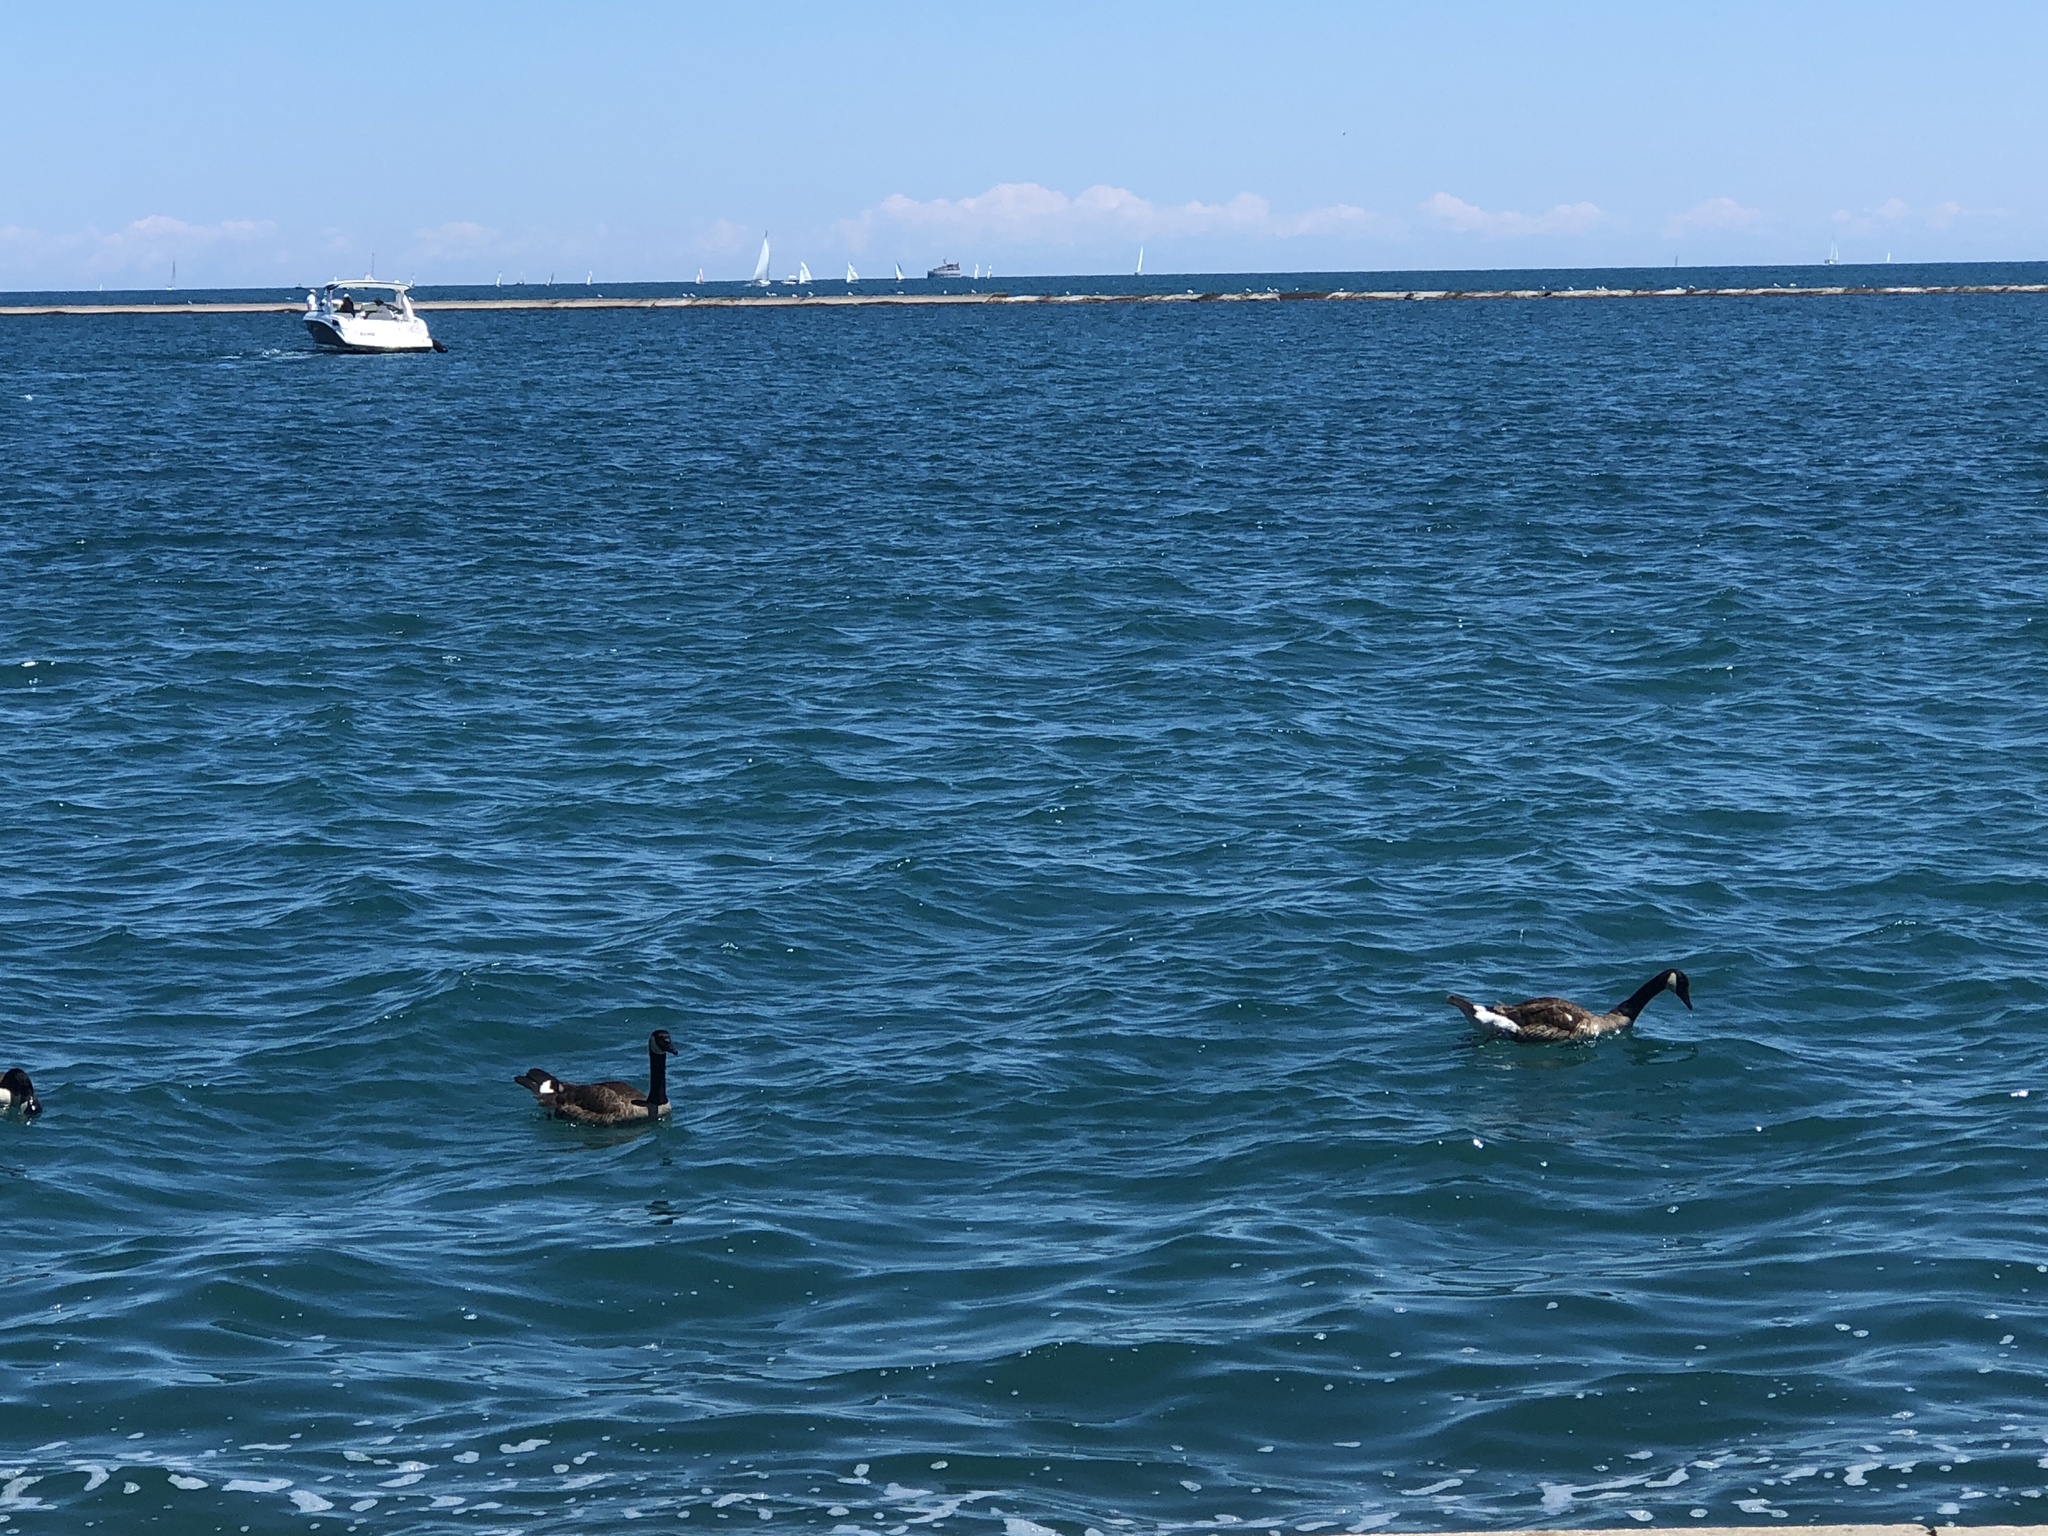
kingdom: Animalia
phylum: Chordata
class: Aves
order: Anseriformes
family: Anatidae
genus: Branta
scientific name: Branta canadensis
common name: Canada goose
